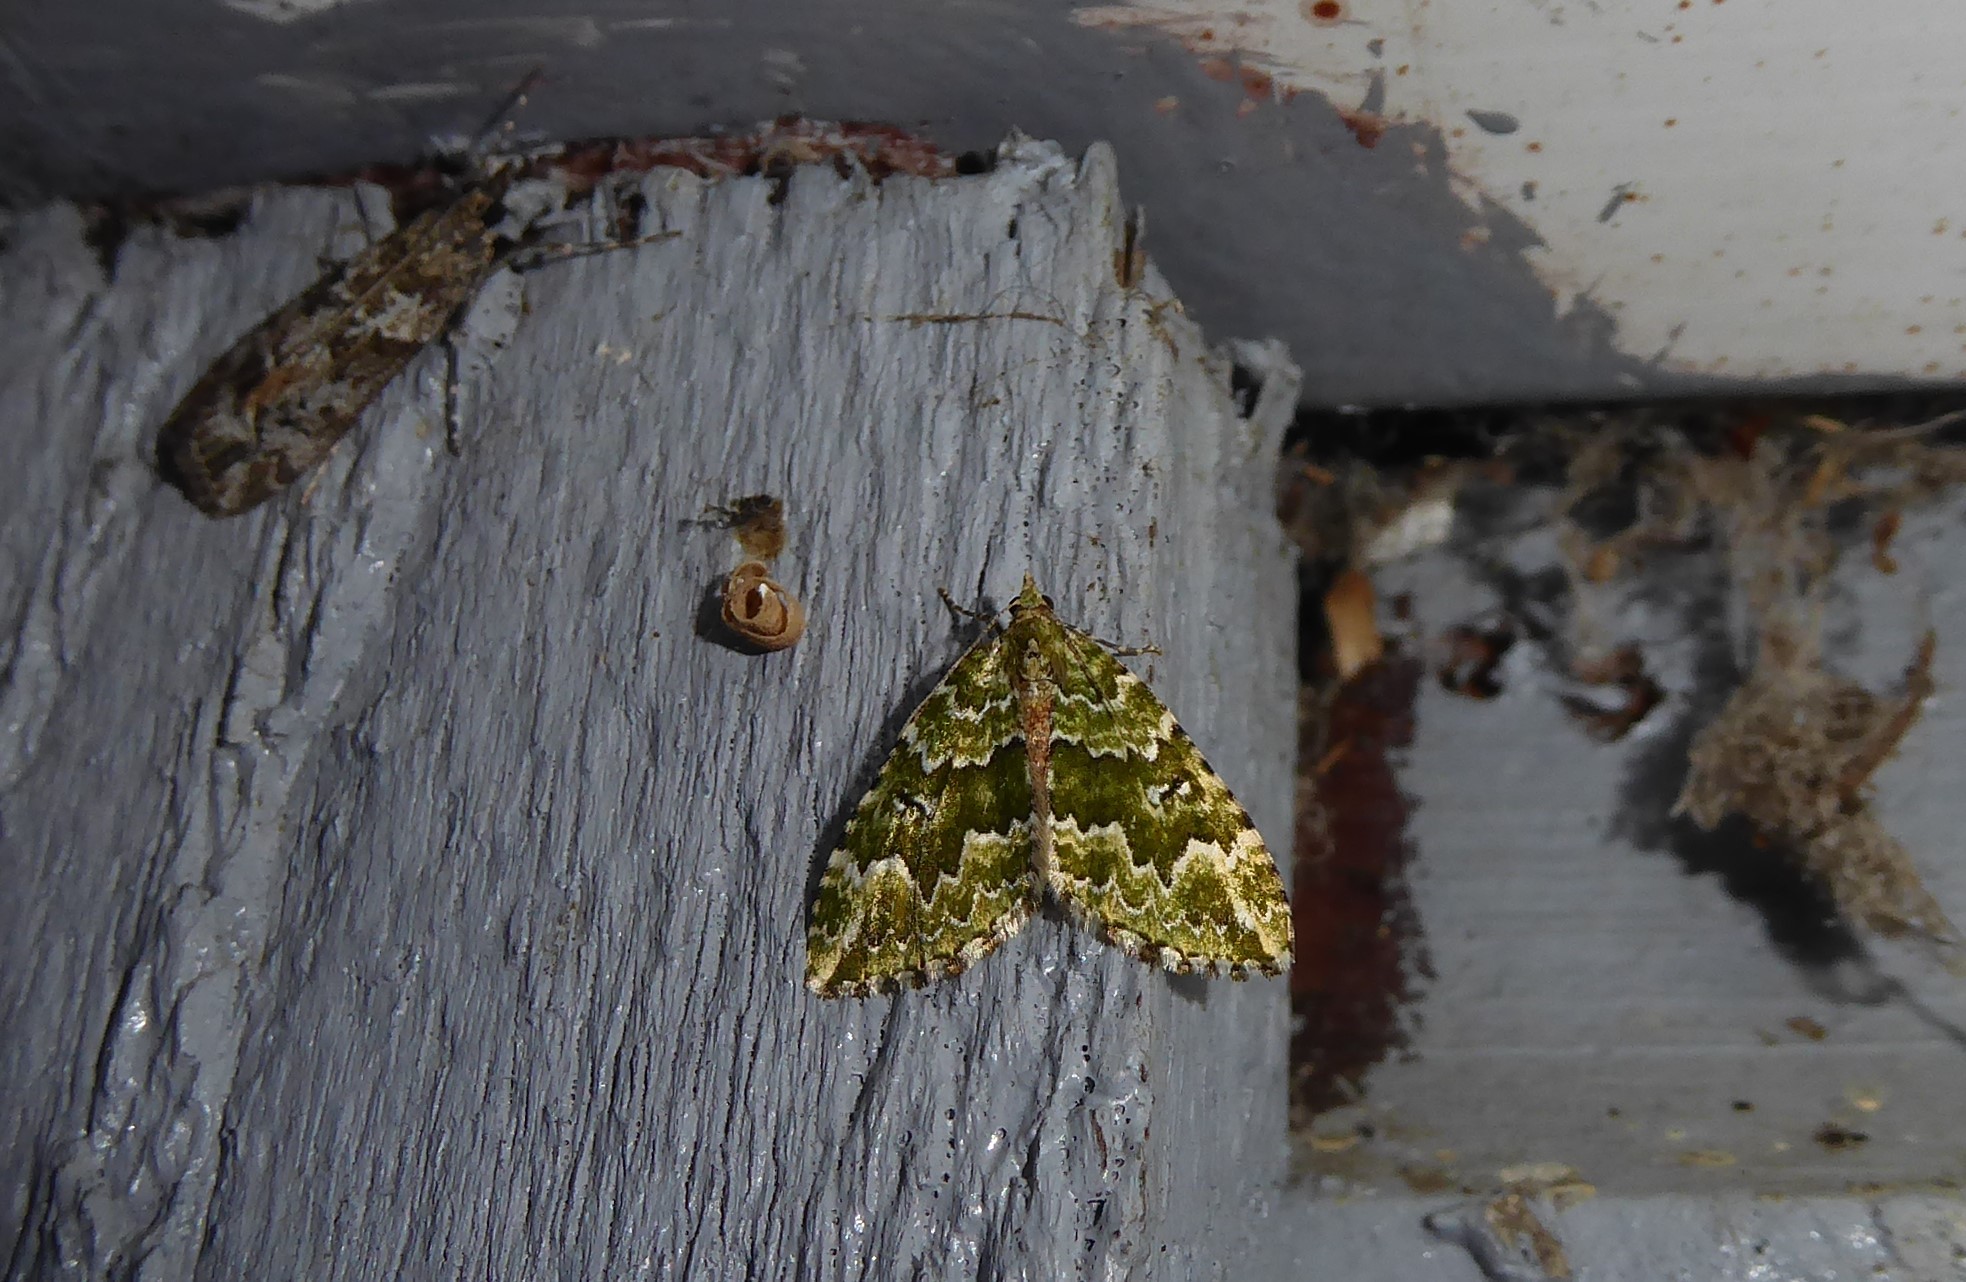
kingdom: Animalia
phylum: Arthropoda
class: Insecta
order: Lepidoptera
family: Geometridae
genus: Asaphodes
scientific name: Asaphodes beata
